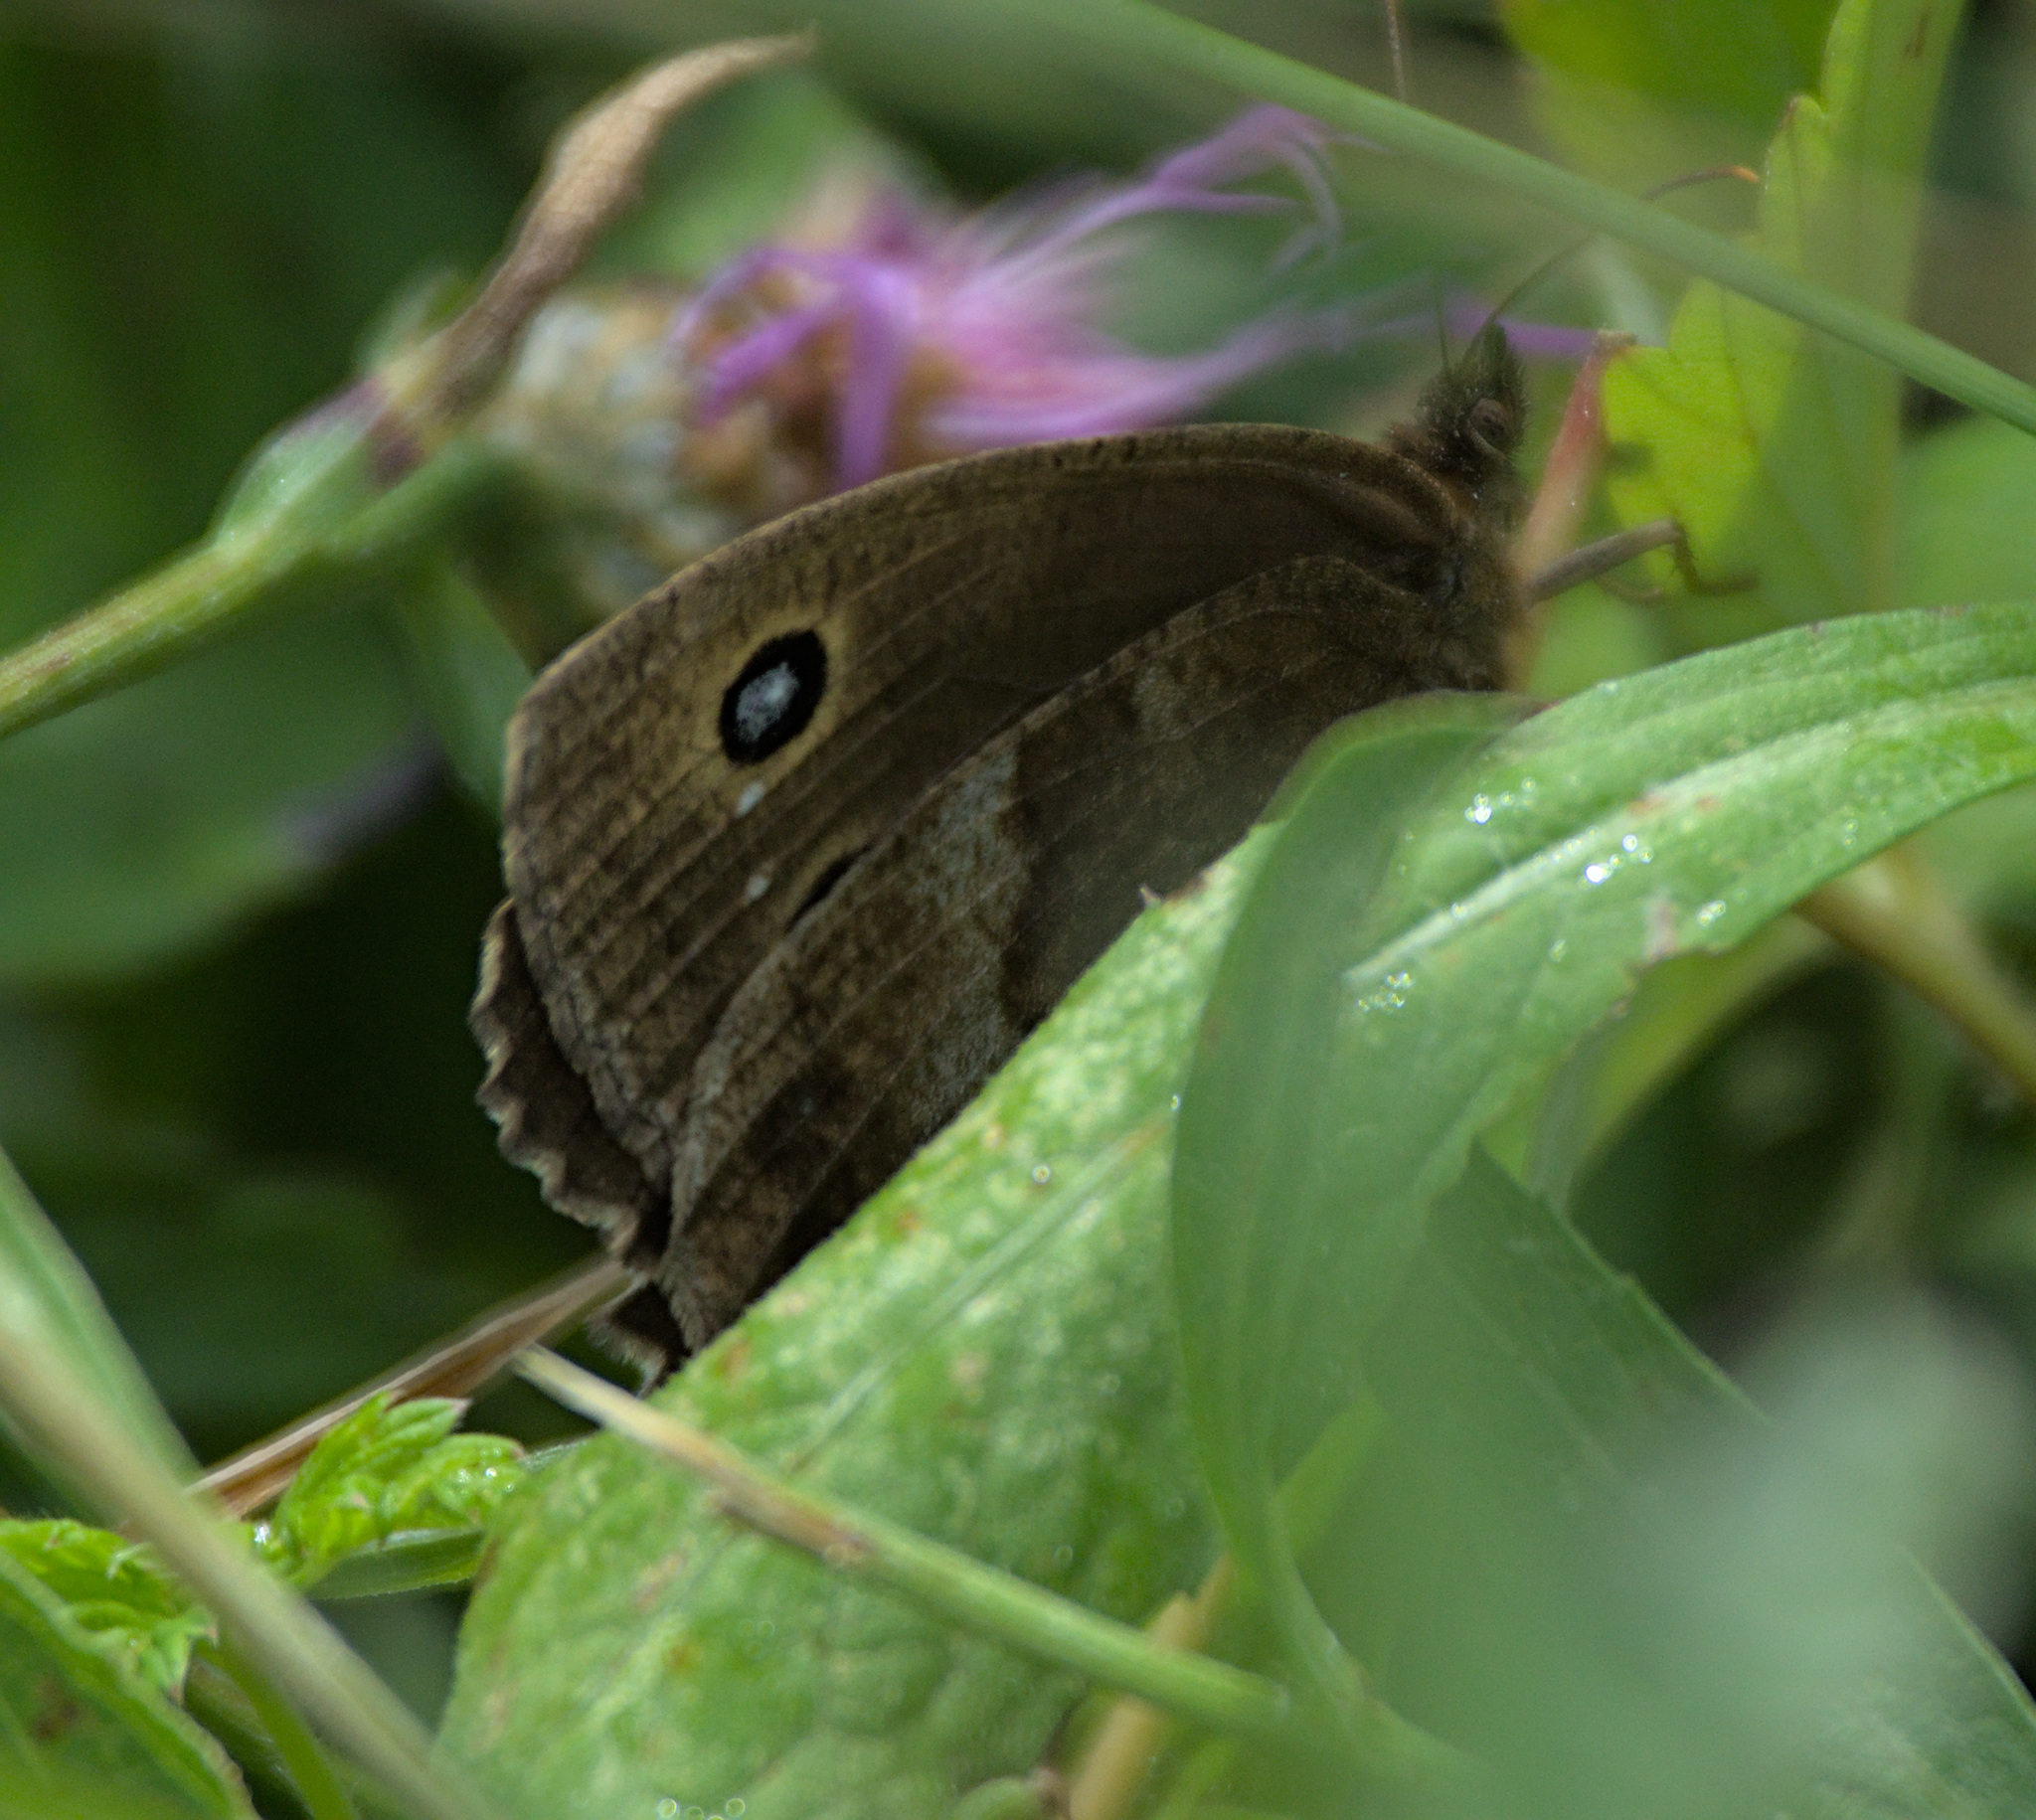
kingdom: Animalia
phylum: Arthropoda
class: Insecta
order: Lepidoptera
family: Nymphalidae
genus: Minois
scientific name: Minois dryas
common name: Dryad
